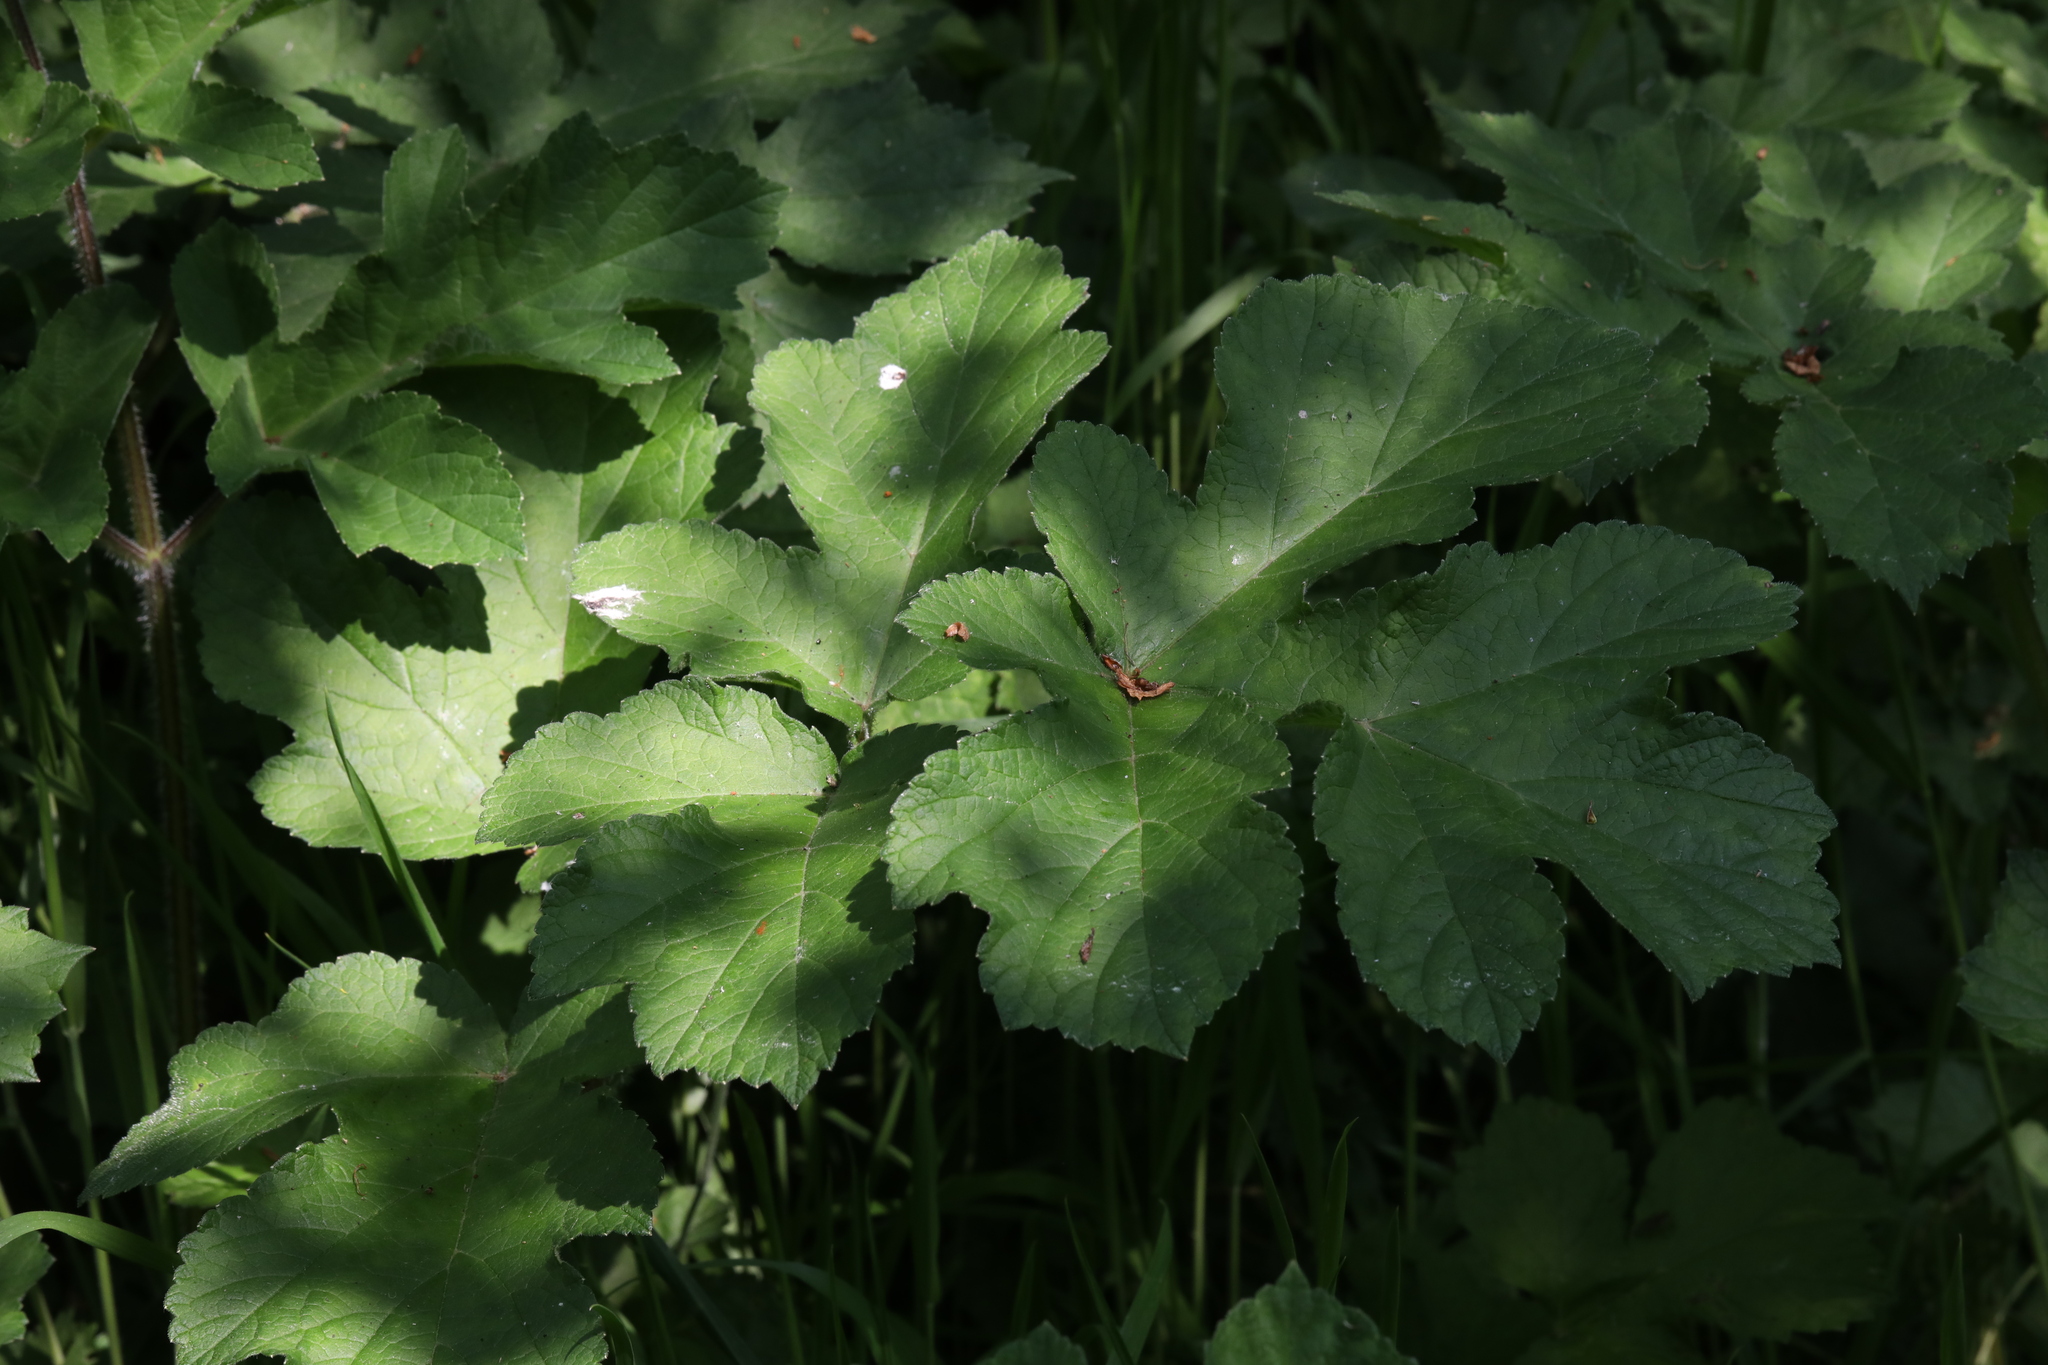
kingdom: Plantae
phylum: Tracheophyta
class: Magnoliopsida
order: Apiales
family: Apiaceae
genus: Heracleum
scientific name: Heracleum sphondylium
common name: Hogweed
